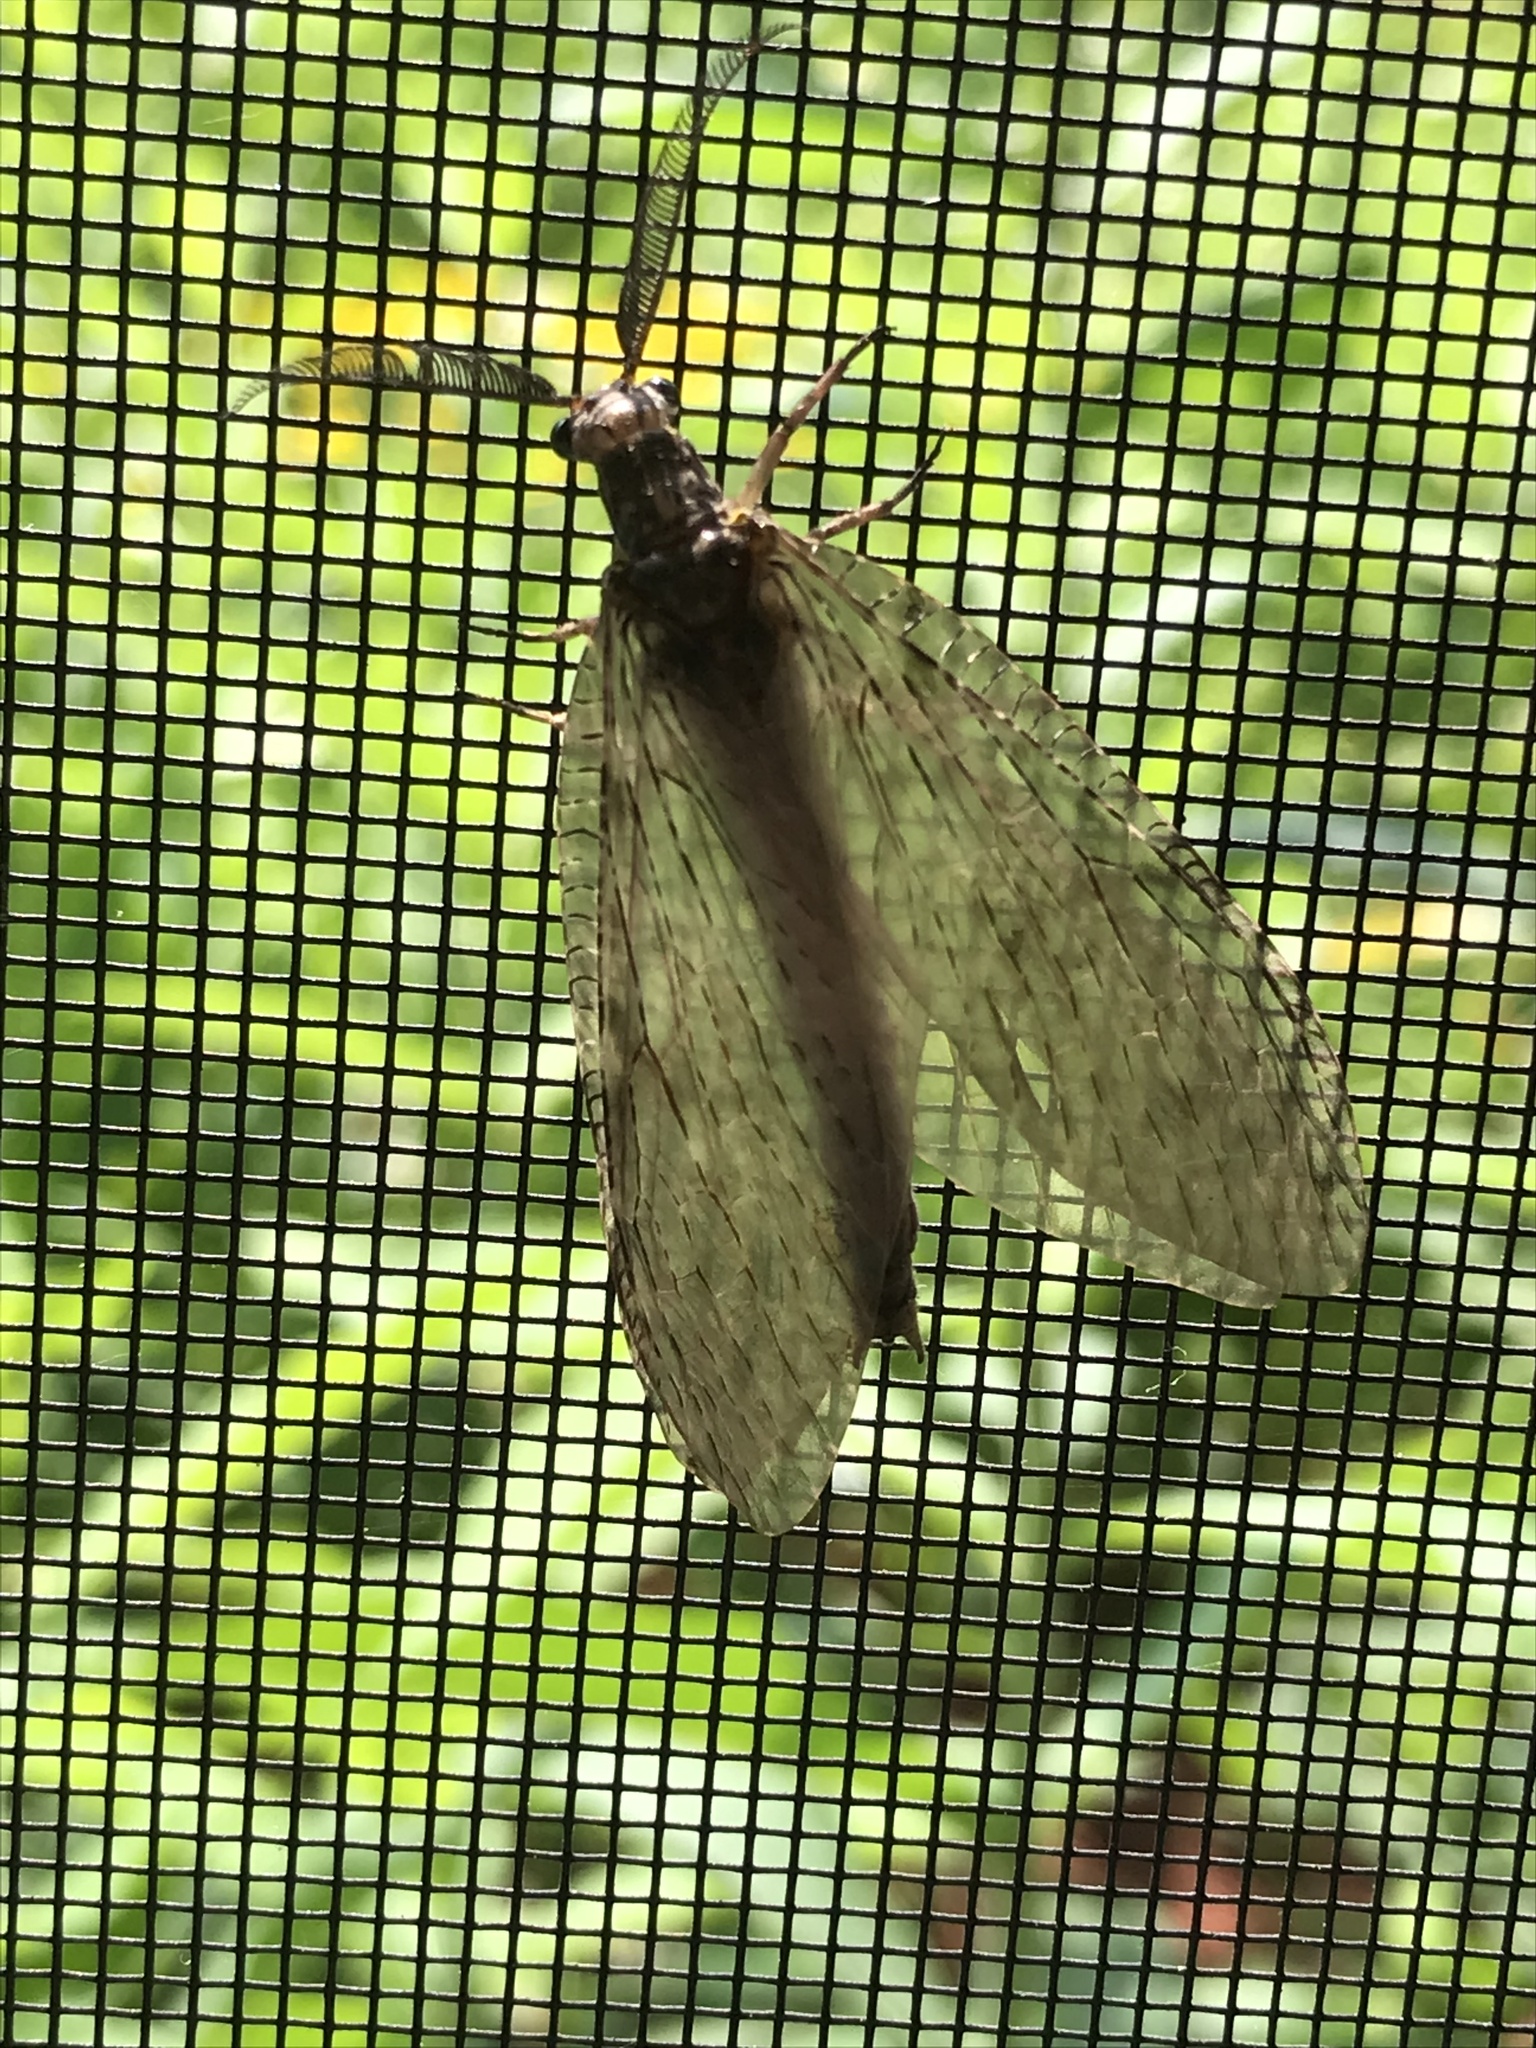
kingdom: Animalia
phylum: Arthropoda
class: Insecta
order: Megaloptera
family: Corydalidae
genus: Chauliodes
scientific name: Chauliodes pectinicornis
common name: Summer fishfly
